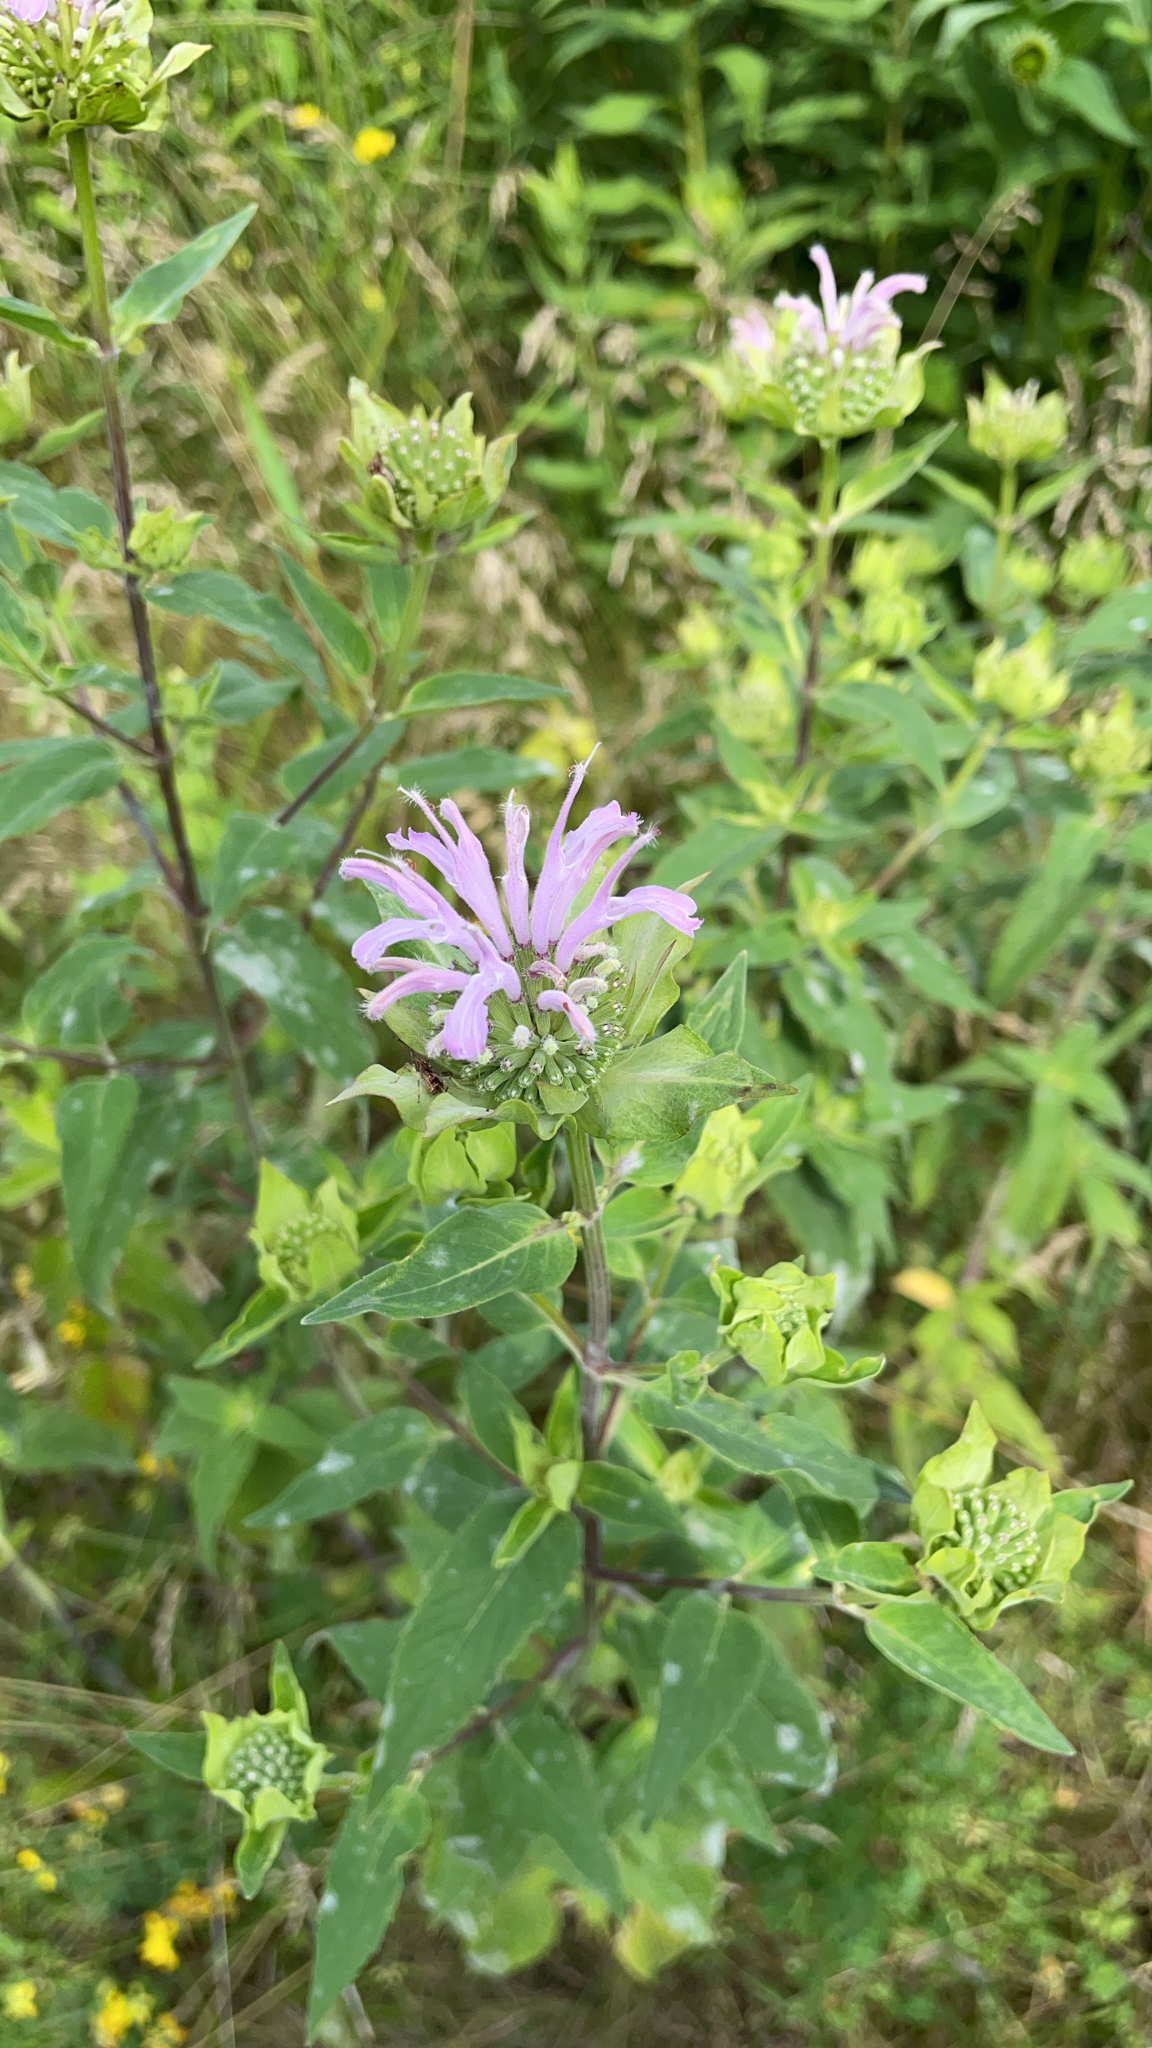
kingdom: Plantae
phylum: Tracheophyta
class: Magnoliopsida
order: Lamiales
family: Lamiaceae
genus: Monarda
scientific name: Monarda fistulosa
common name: Purple beebalm
